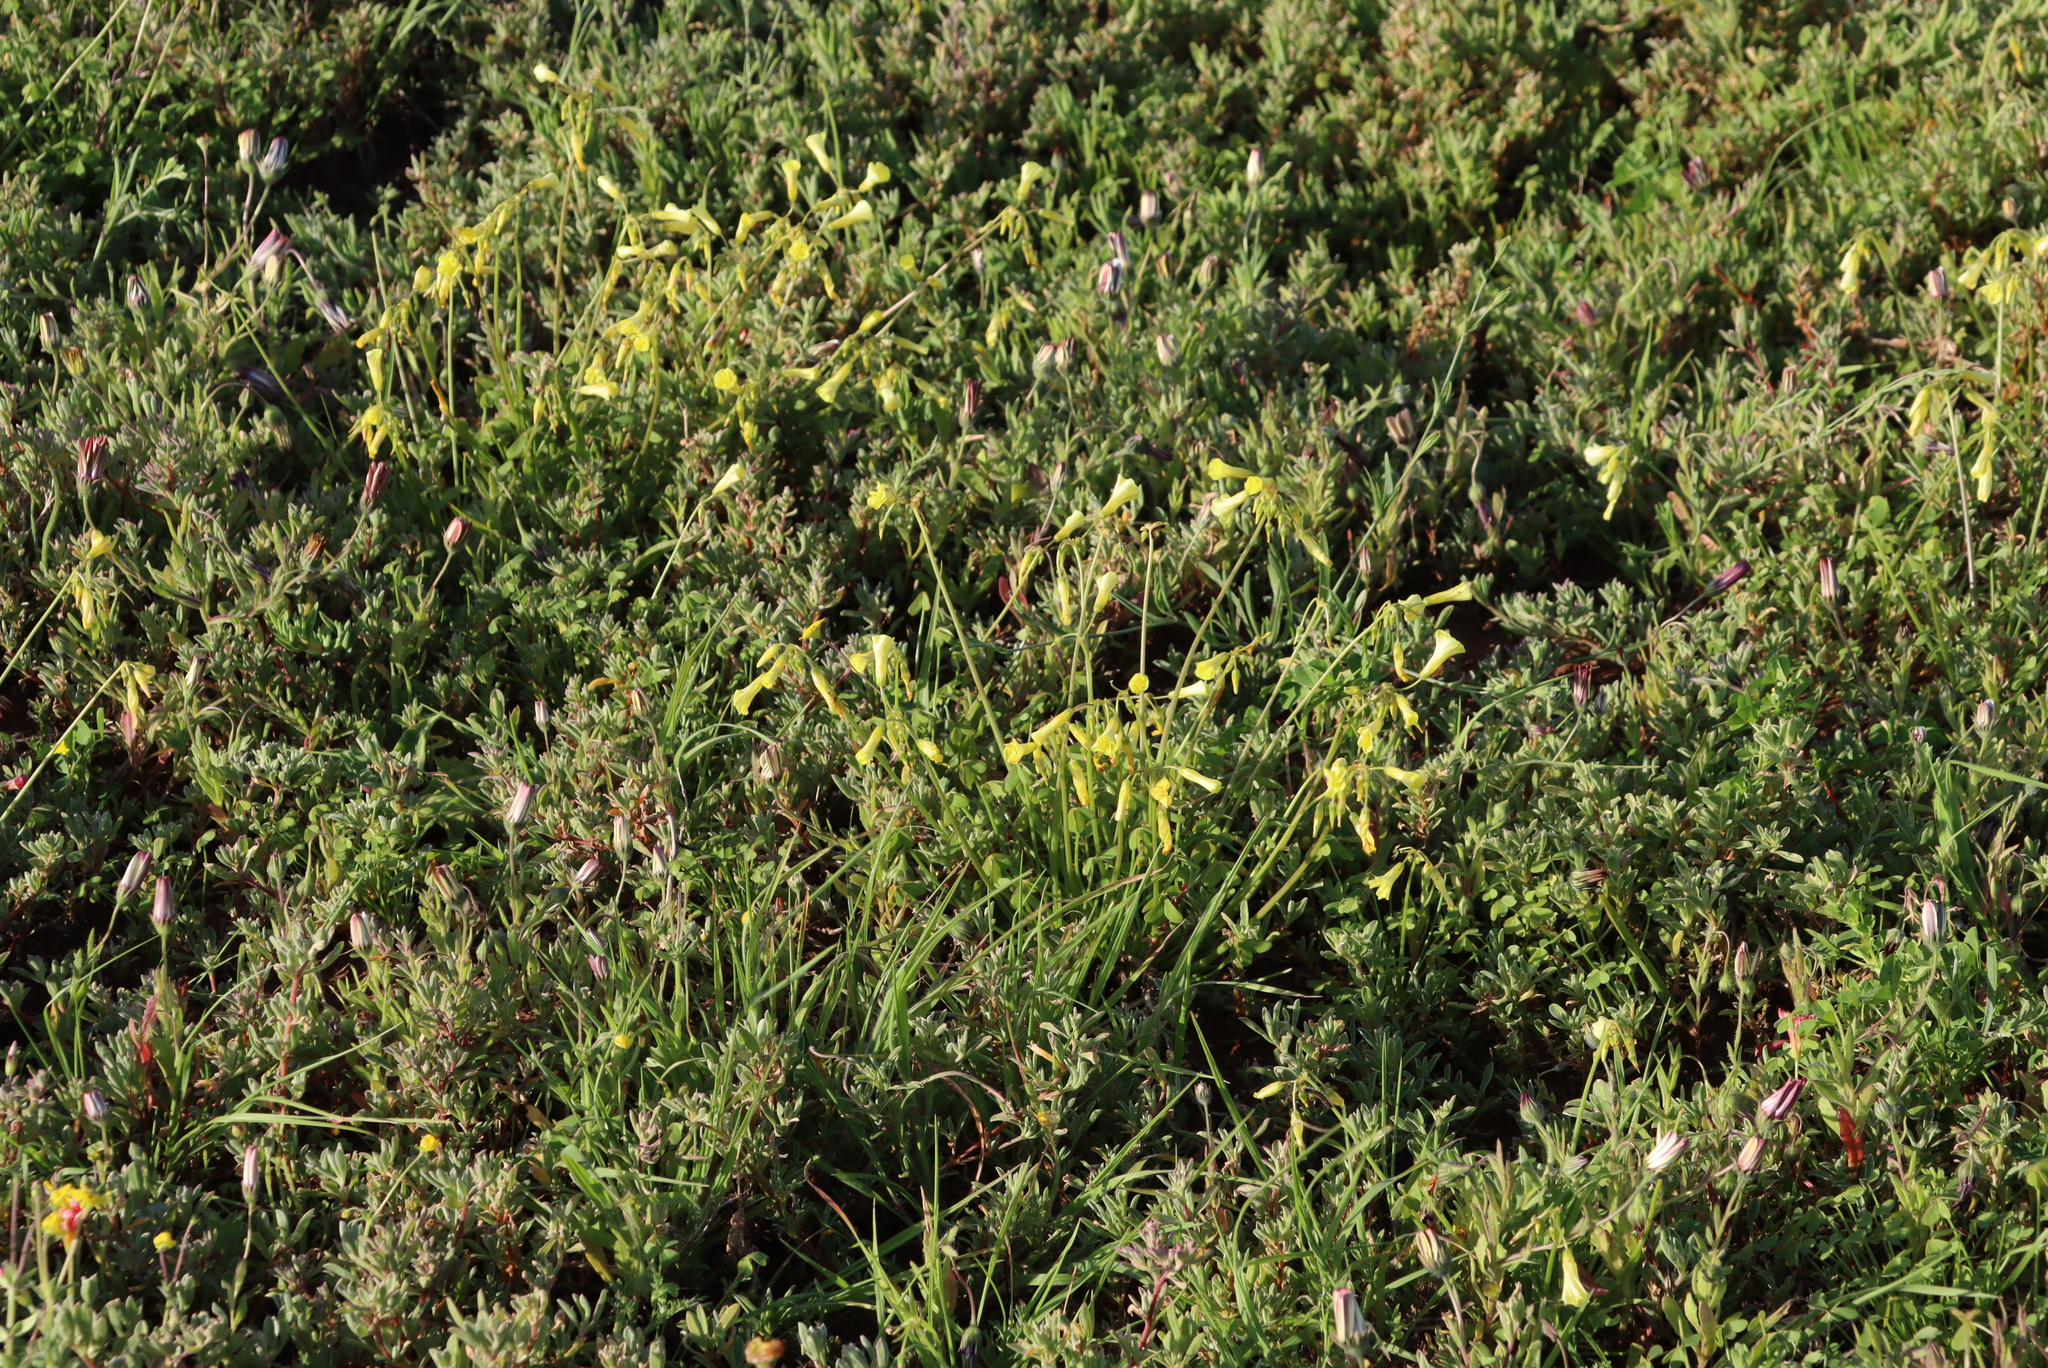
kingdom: Plantae
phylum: Tracheophyta
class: Magnoliopsida
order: Oxalidales
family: Oxalidaceae
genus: Oxalis
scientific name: Oxalis pes-caprae
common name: Bermuda-buttercup
